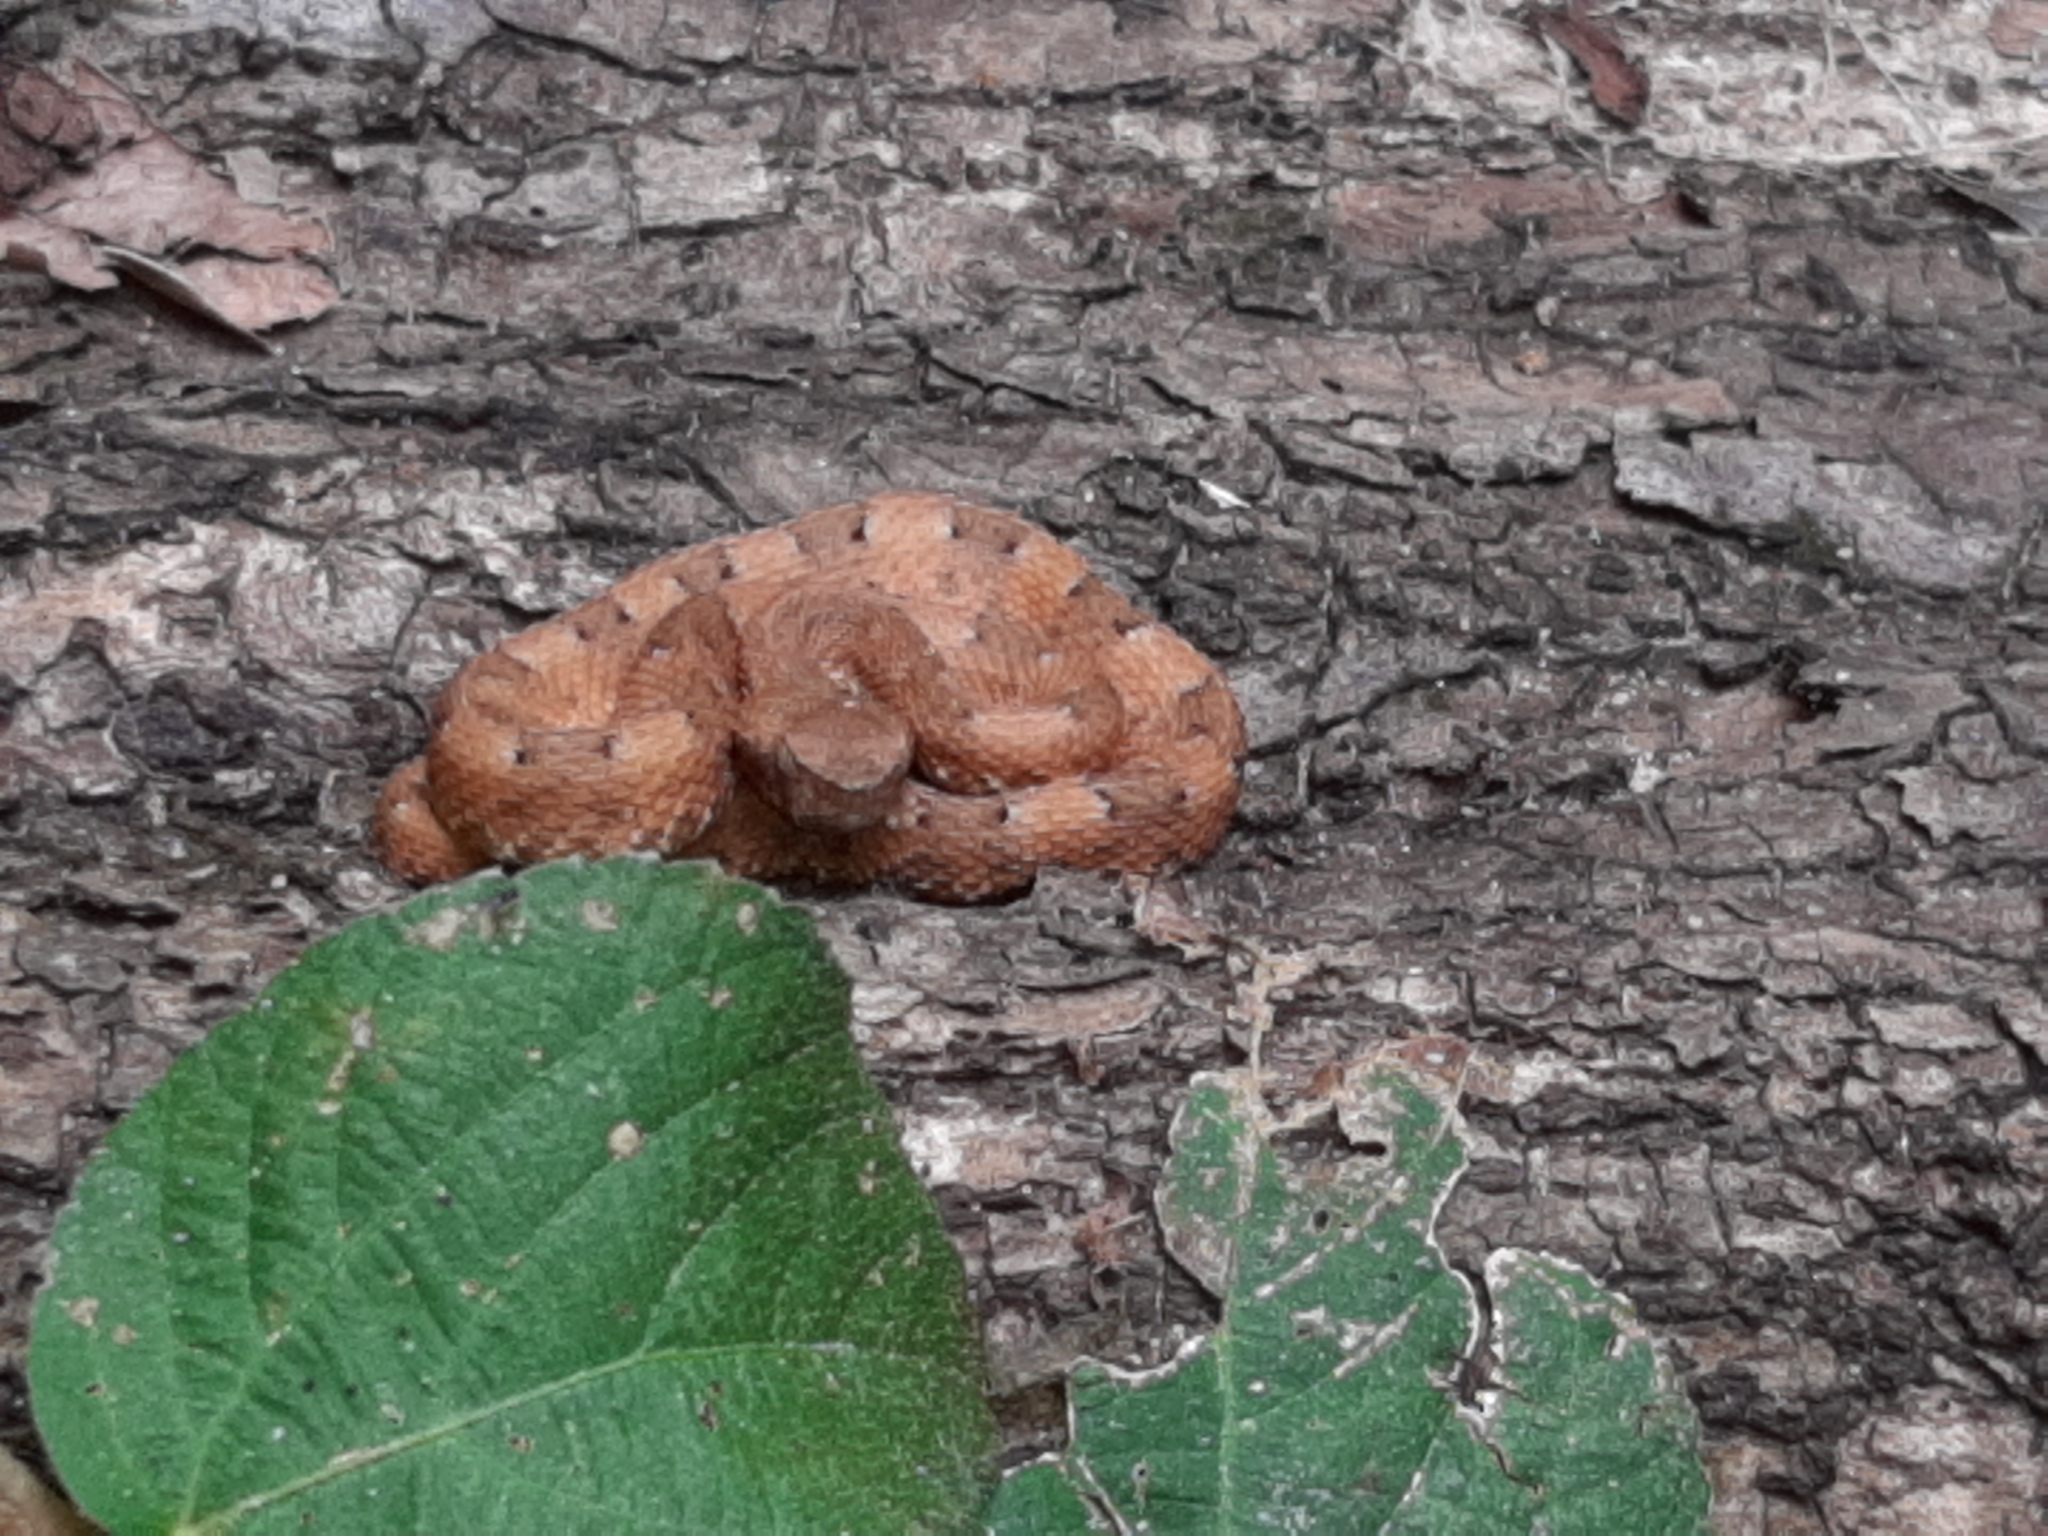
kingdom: Animalia
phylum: Chordata
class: Squamata
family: Viperidae
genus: Porthidium
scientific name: Porthidium lansbergii
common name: Lansberg's hognosed pit viper
